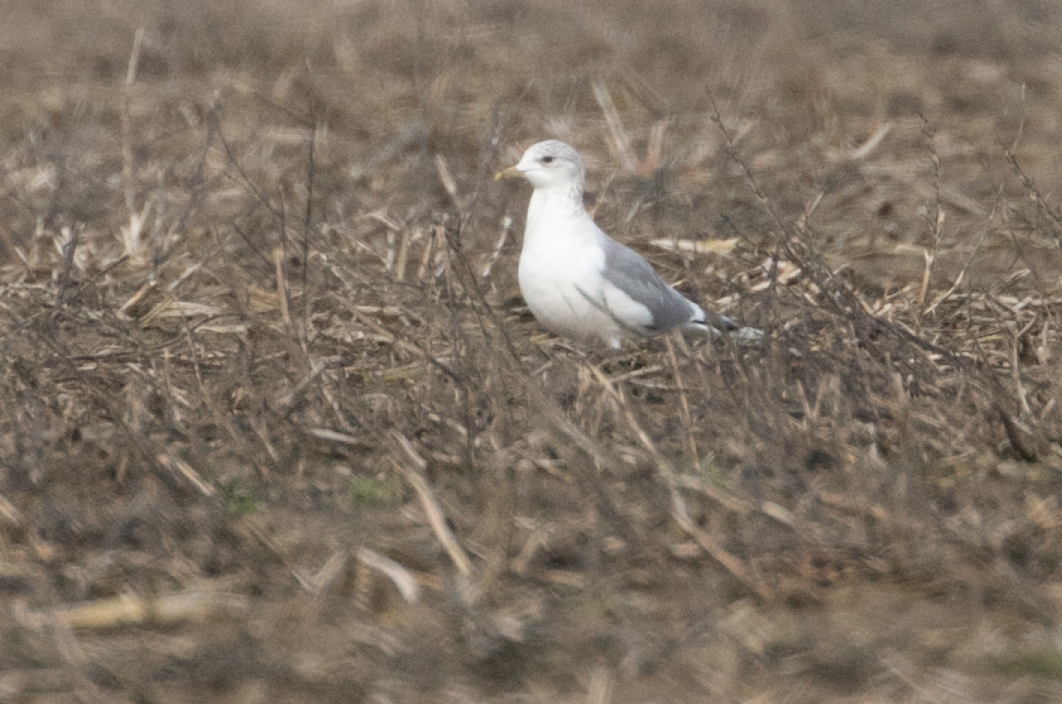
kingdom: Animalia
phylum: Chordata
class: Aves
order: Charadriiformes
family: Laridae
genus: Larus
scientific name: Larus canus
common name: Mew gull
